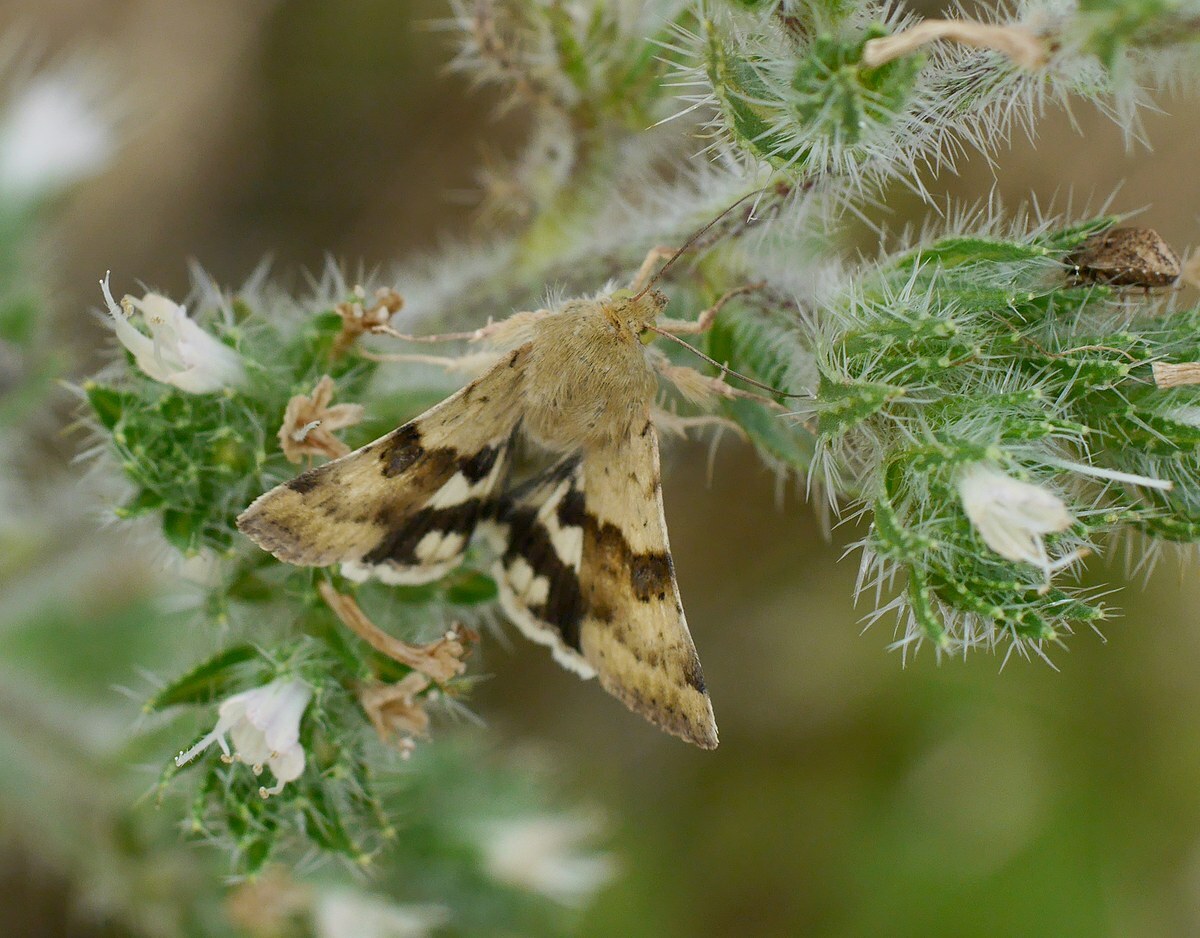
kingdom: Animalia
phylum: Arthropoda
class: Insecta
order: Lepidoptera
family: Noctuidae
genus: Heliothis
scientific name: Heliothis viriplaca
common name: Marbled clover
